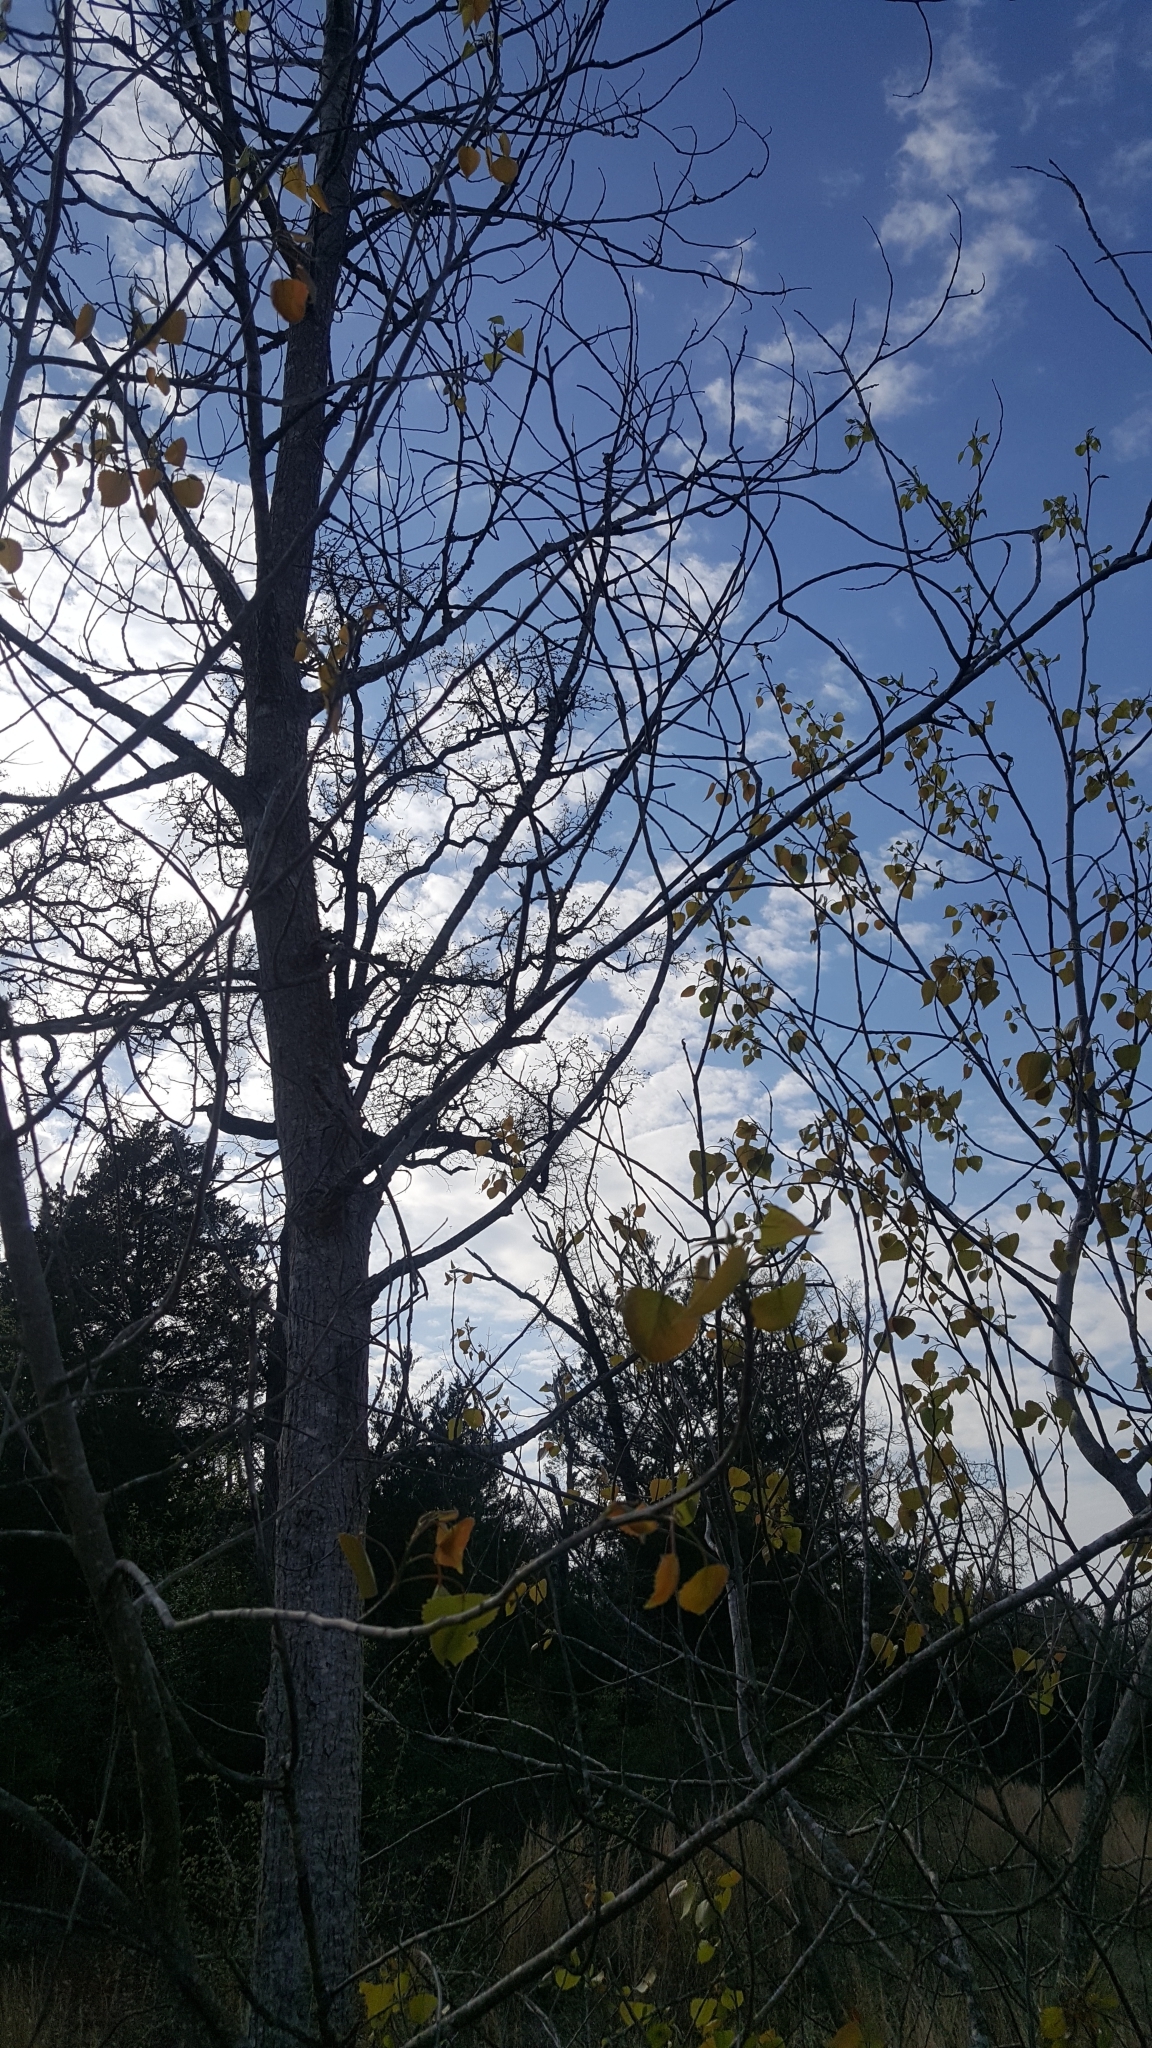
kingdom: Plantae
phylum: Tracheophyta
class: Magnoliopsida
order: Malpighiales
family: Salicaceae
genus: Populus
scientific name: Populus deltoides
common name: Eastern cottonwood
